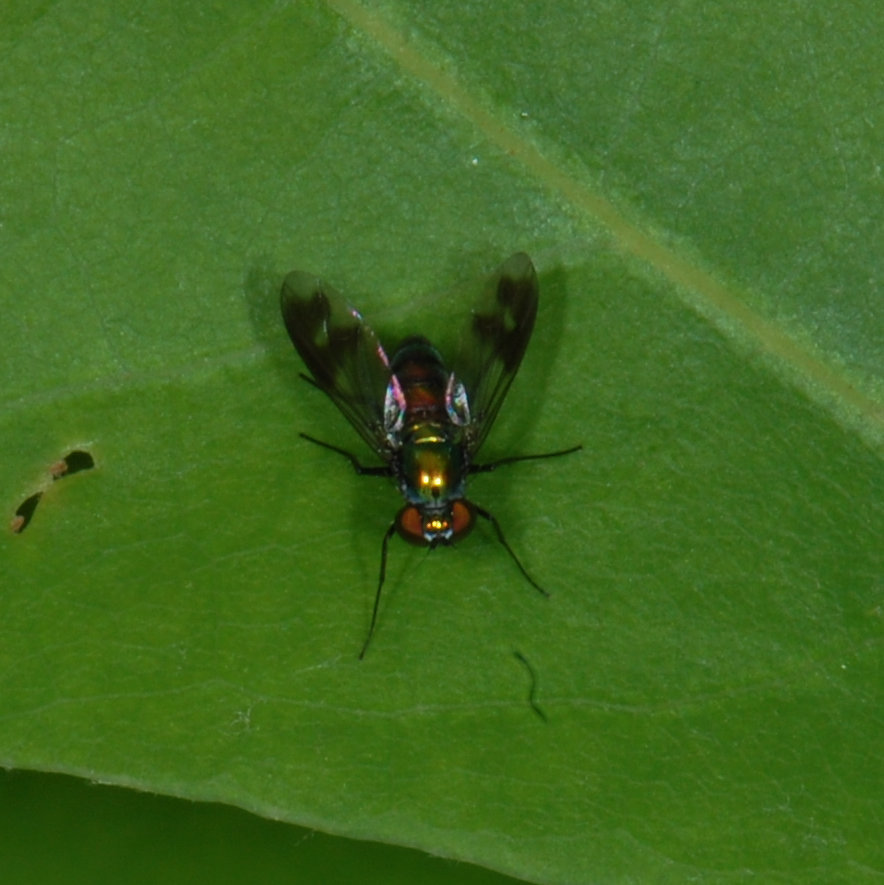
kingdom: Animalia
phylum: Arthropoda
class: Insecta
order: Diptera
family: Dolichopodidae
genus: Condylostylus
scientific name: Condylostylus patibulatus
